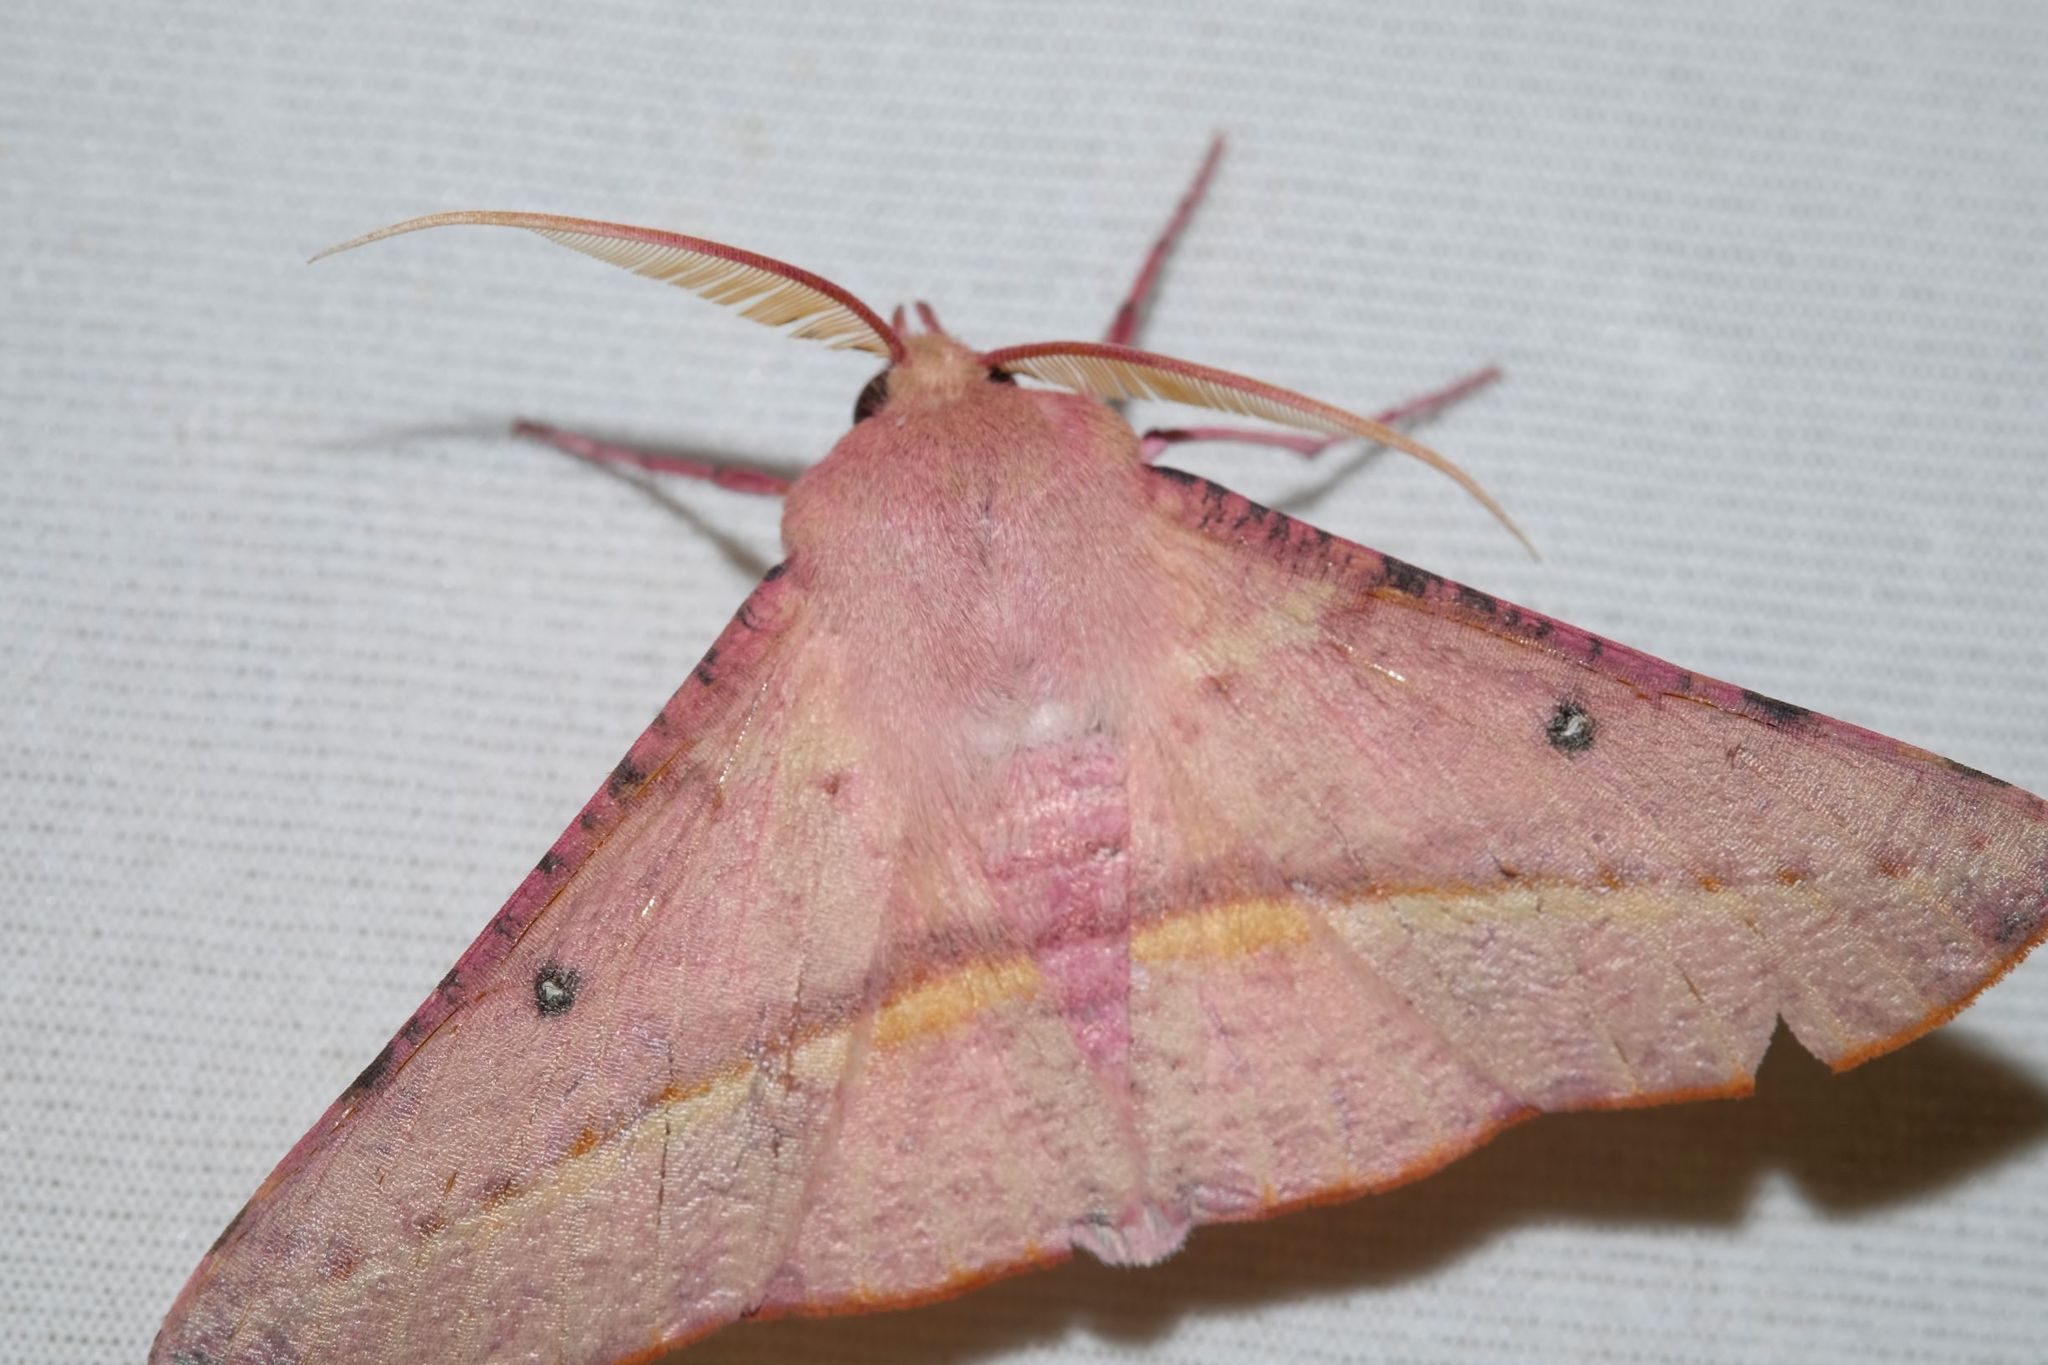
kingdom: Animalia
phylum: Arthropoda
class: Insecta
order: Lepidoptera
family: Geometridae
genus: Oenochroma
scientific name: Oenochroma vinaria
